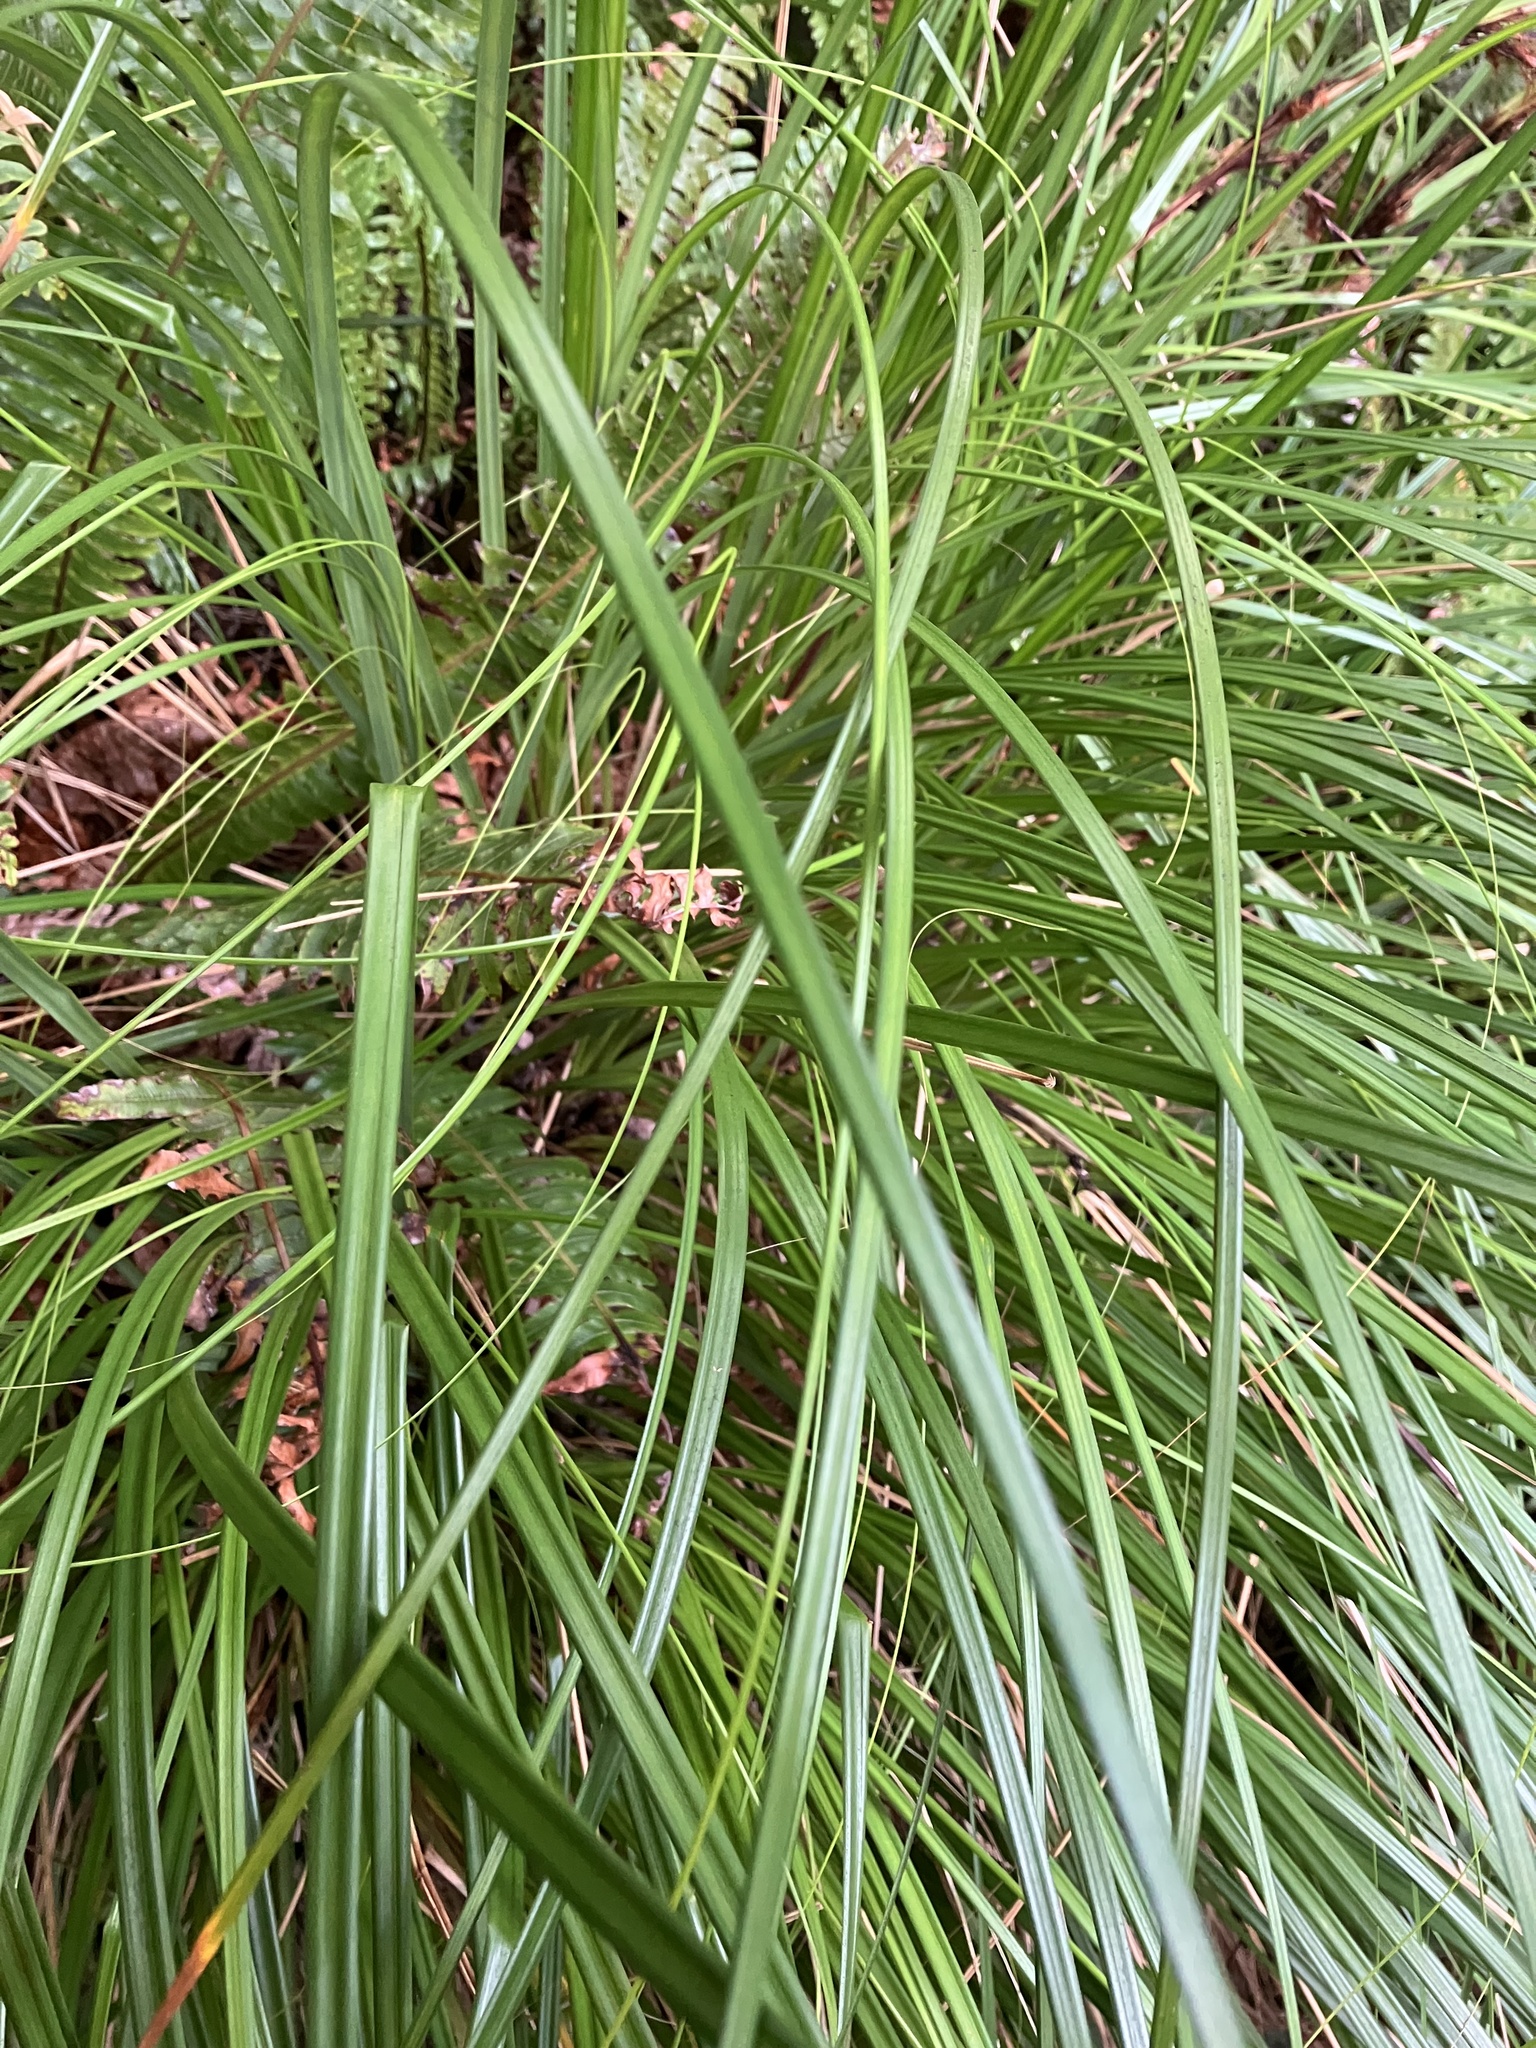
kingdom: Plantae
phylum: Tracheophyta
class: Liliopsida
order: Poales
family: Cyperaceae
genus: Gahnia
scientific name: Gahnia procera
